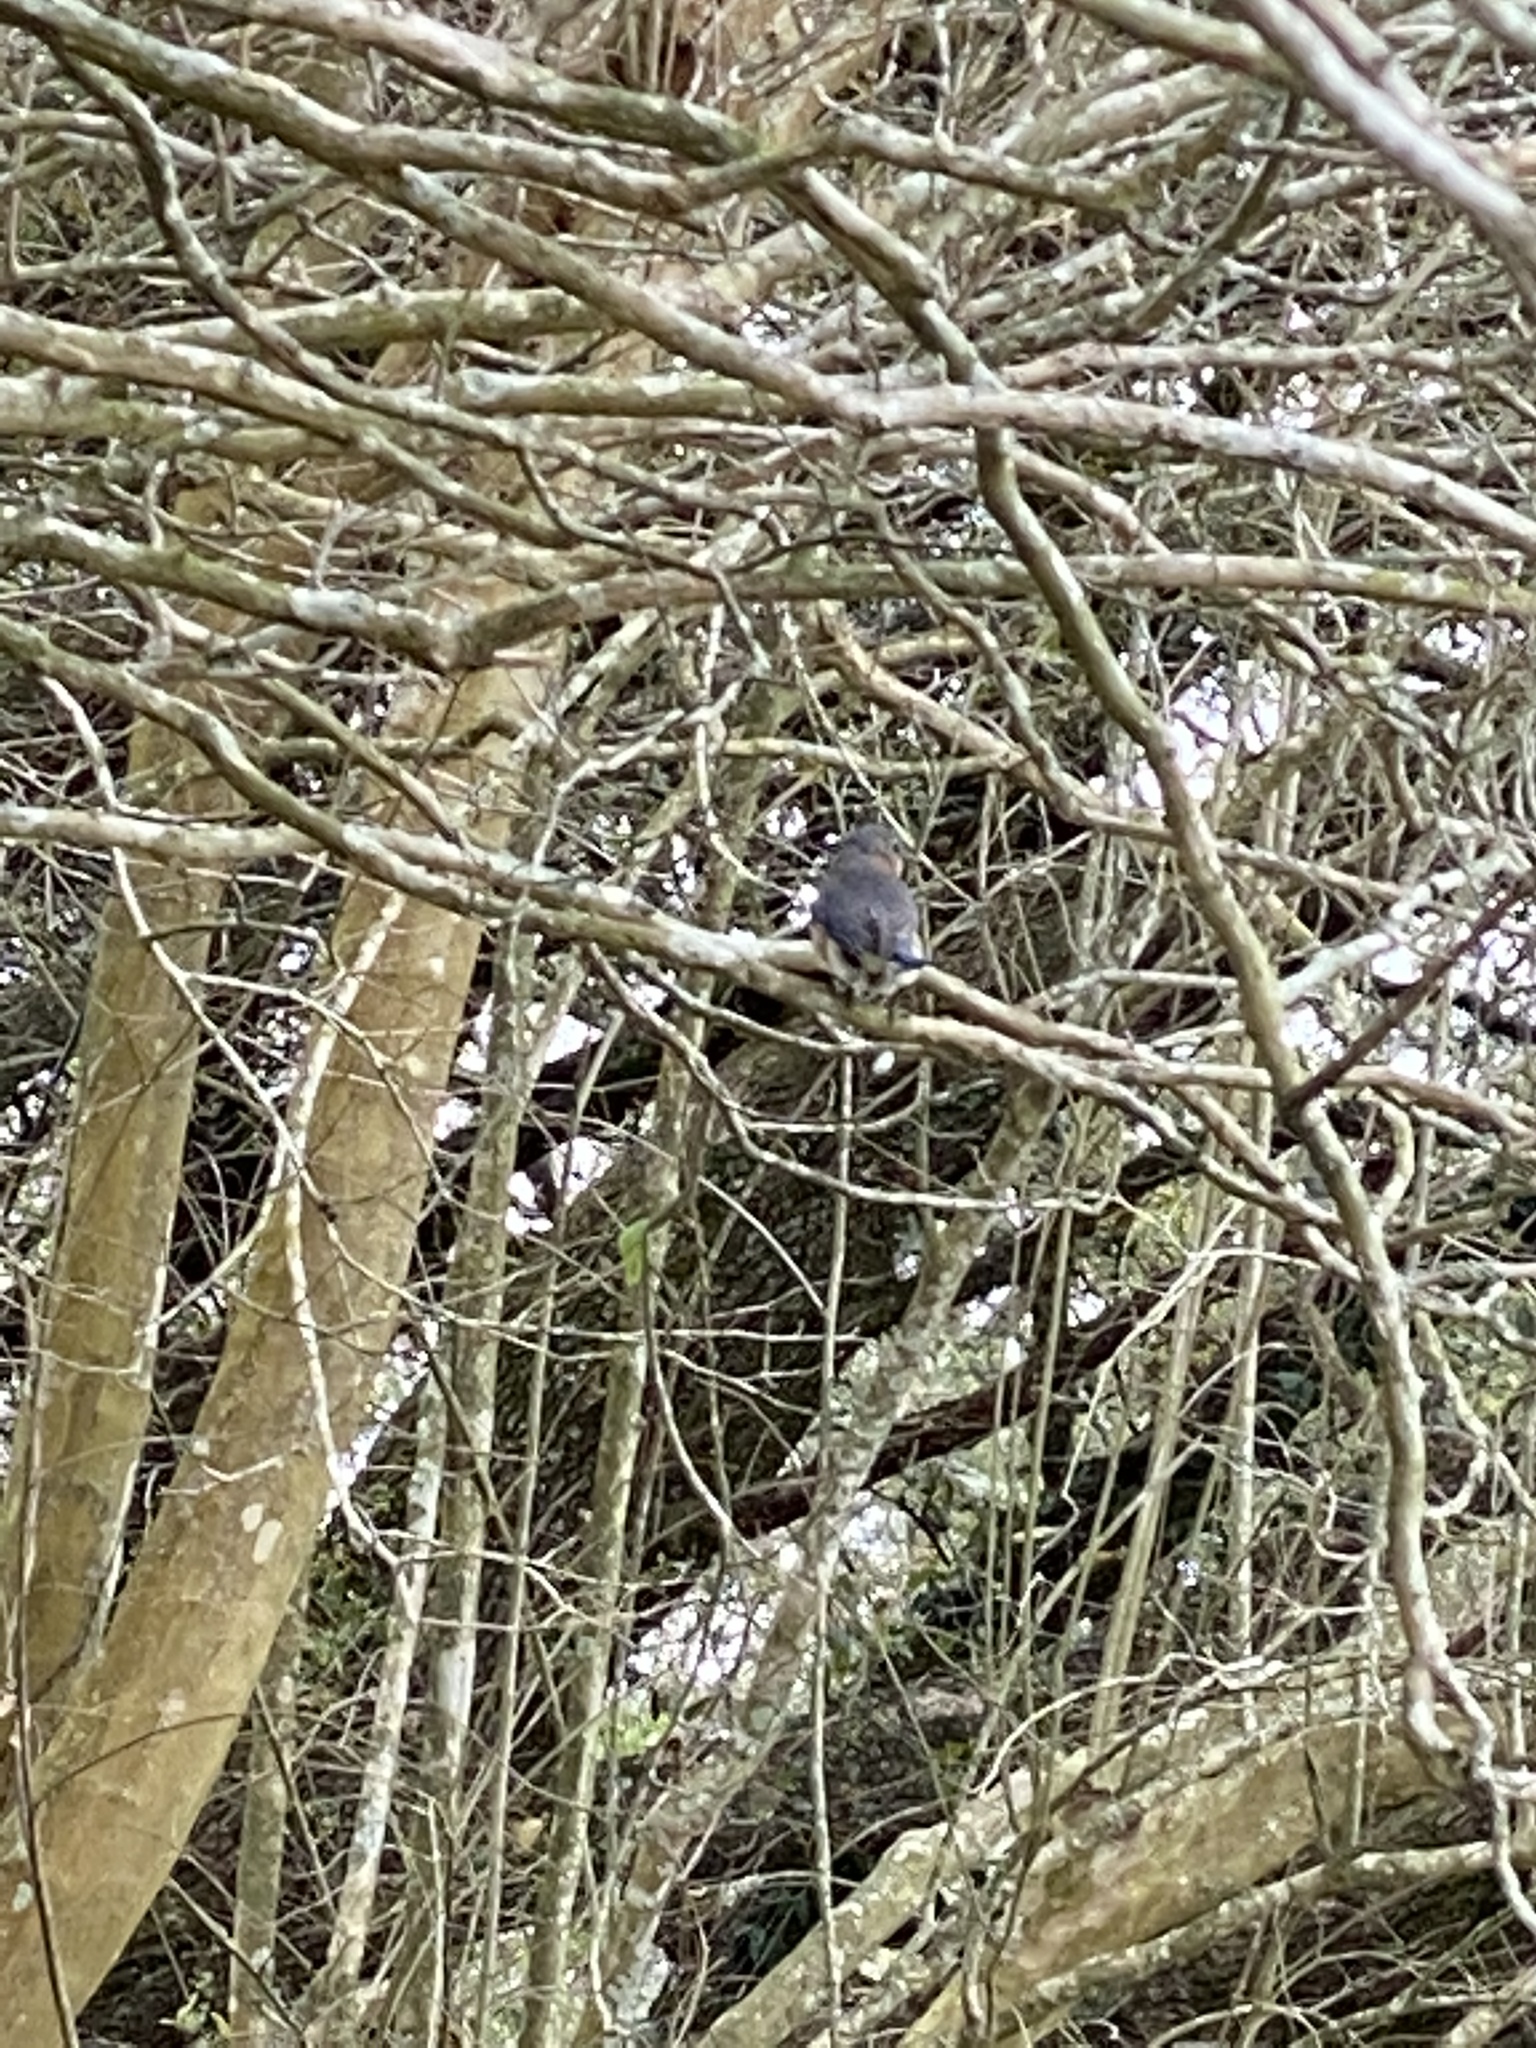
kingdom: Animalia
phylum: Chordata
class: Aves
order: Passeriformes
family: Turdidae
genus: Sialia
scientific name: Sialia sialis
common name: Eastern bluebird
